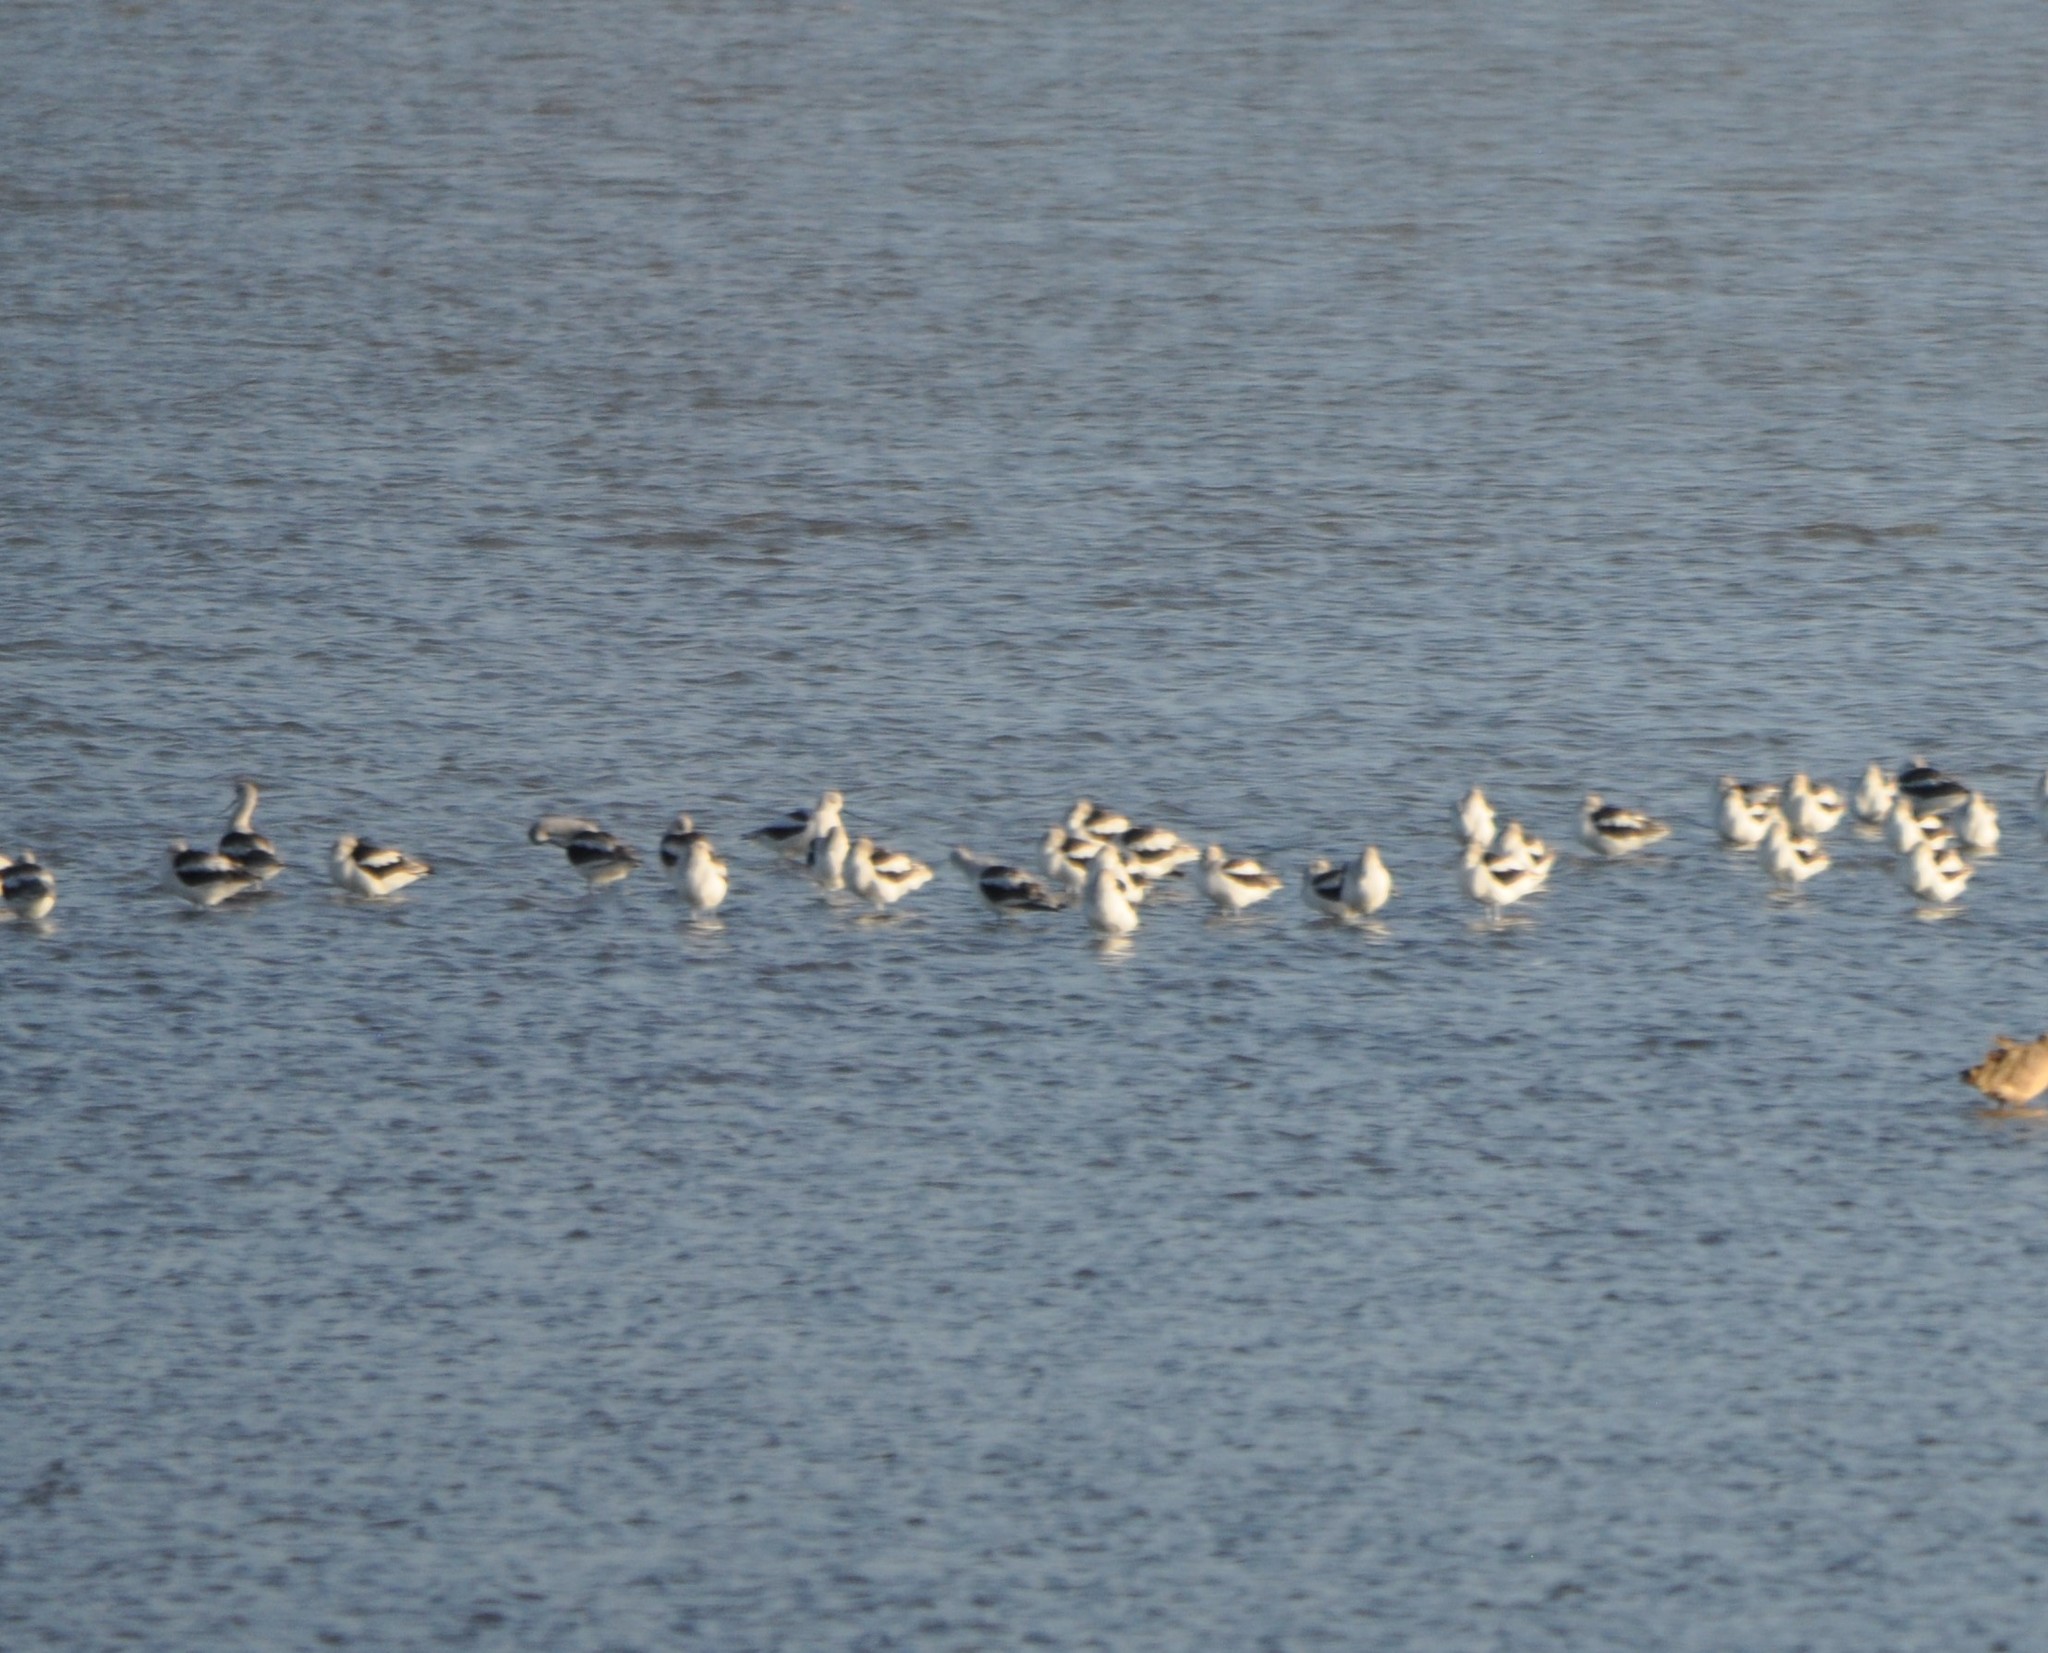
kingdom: Animalia
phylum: Chordata
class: Aves
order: Charadriiformes
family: Recurvirostridae
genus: Recurvirostra
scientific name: Recurvirostra americana
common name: American avocet
